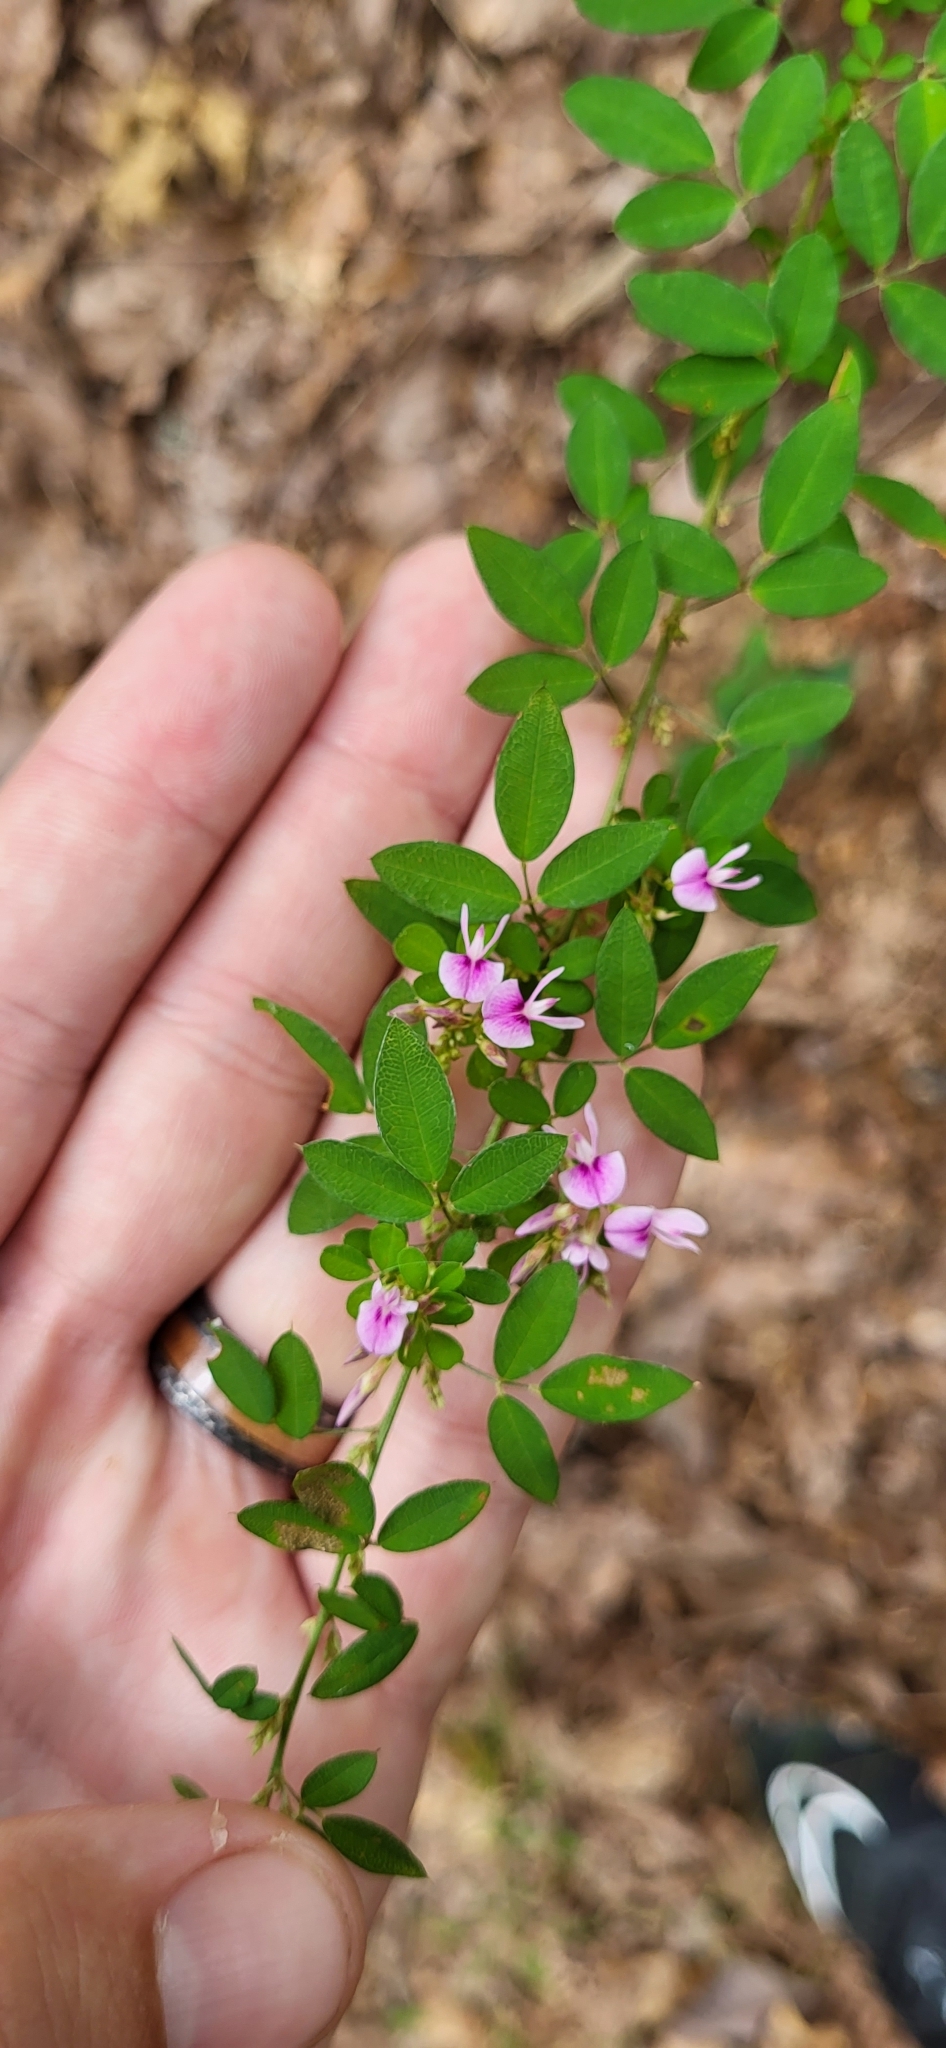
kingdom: Plantae
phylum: Tracheophyta
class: Magnoliopsida
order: Fabales
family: Fabaceae
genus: Lespedeza
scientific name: Lespedeza violacea
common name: Wand bush-clover
